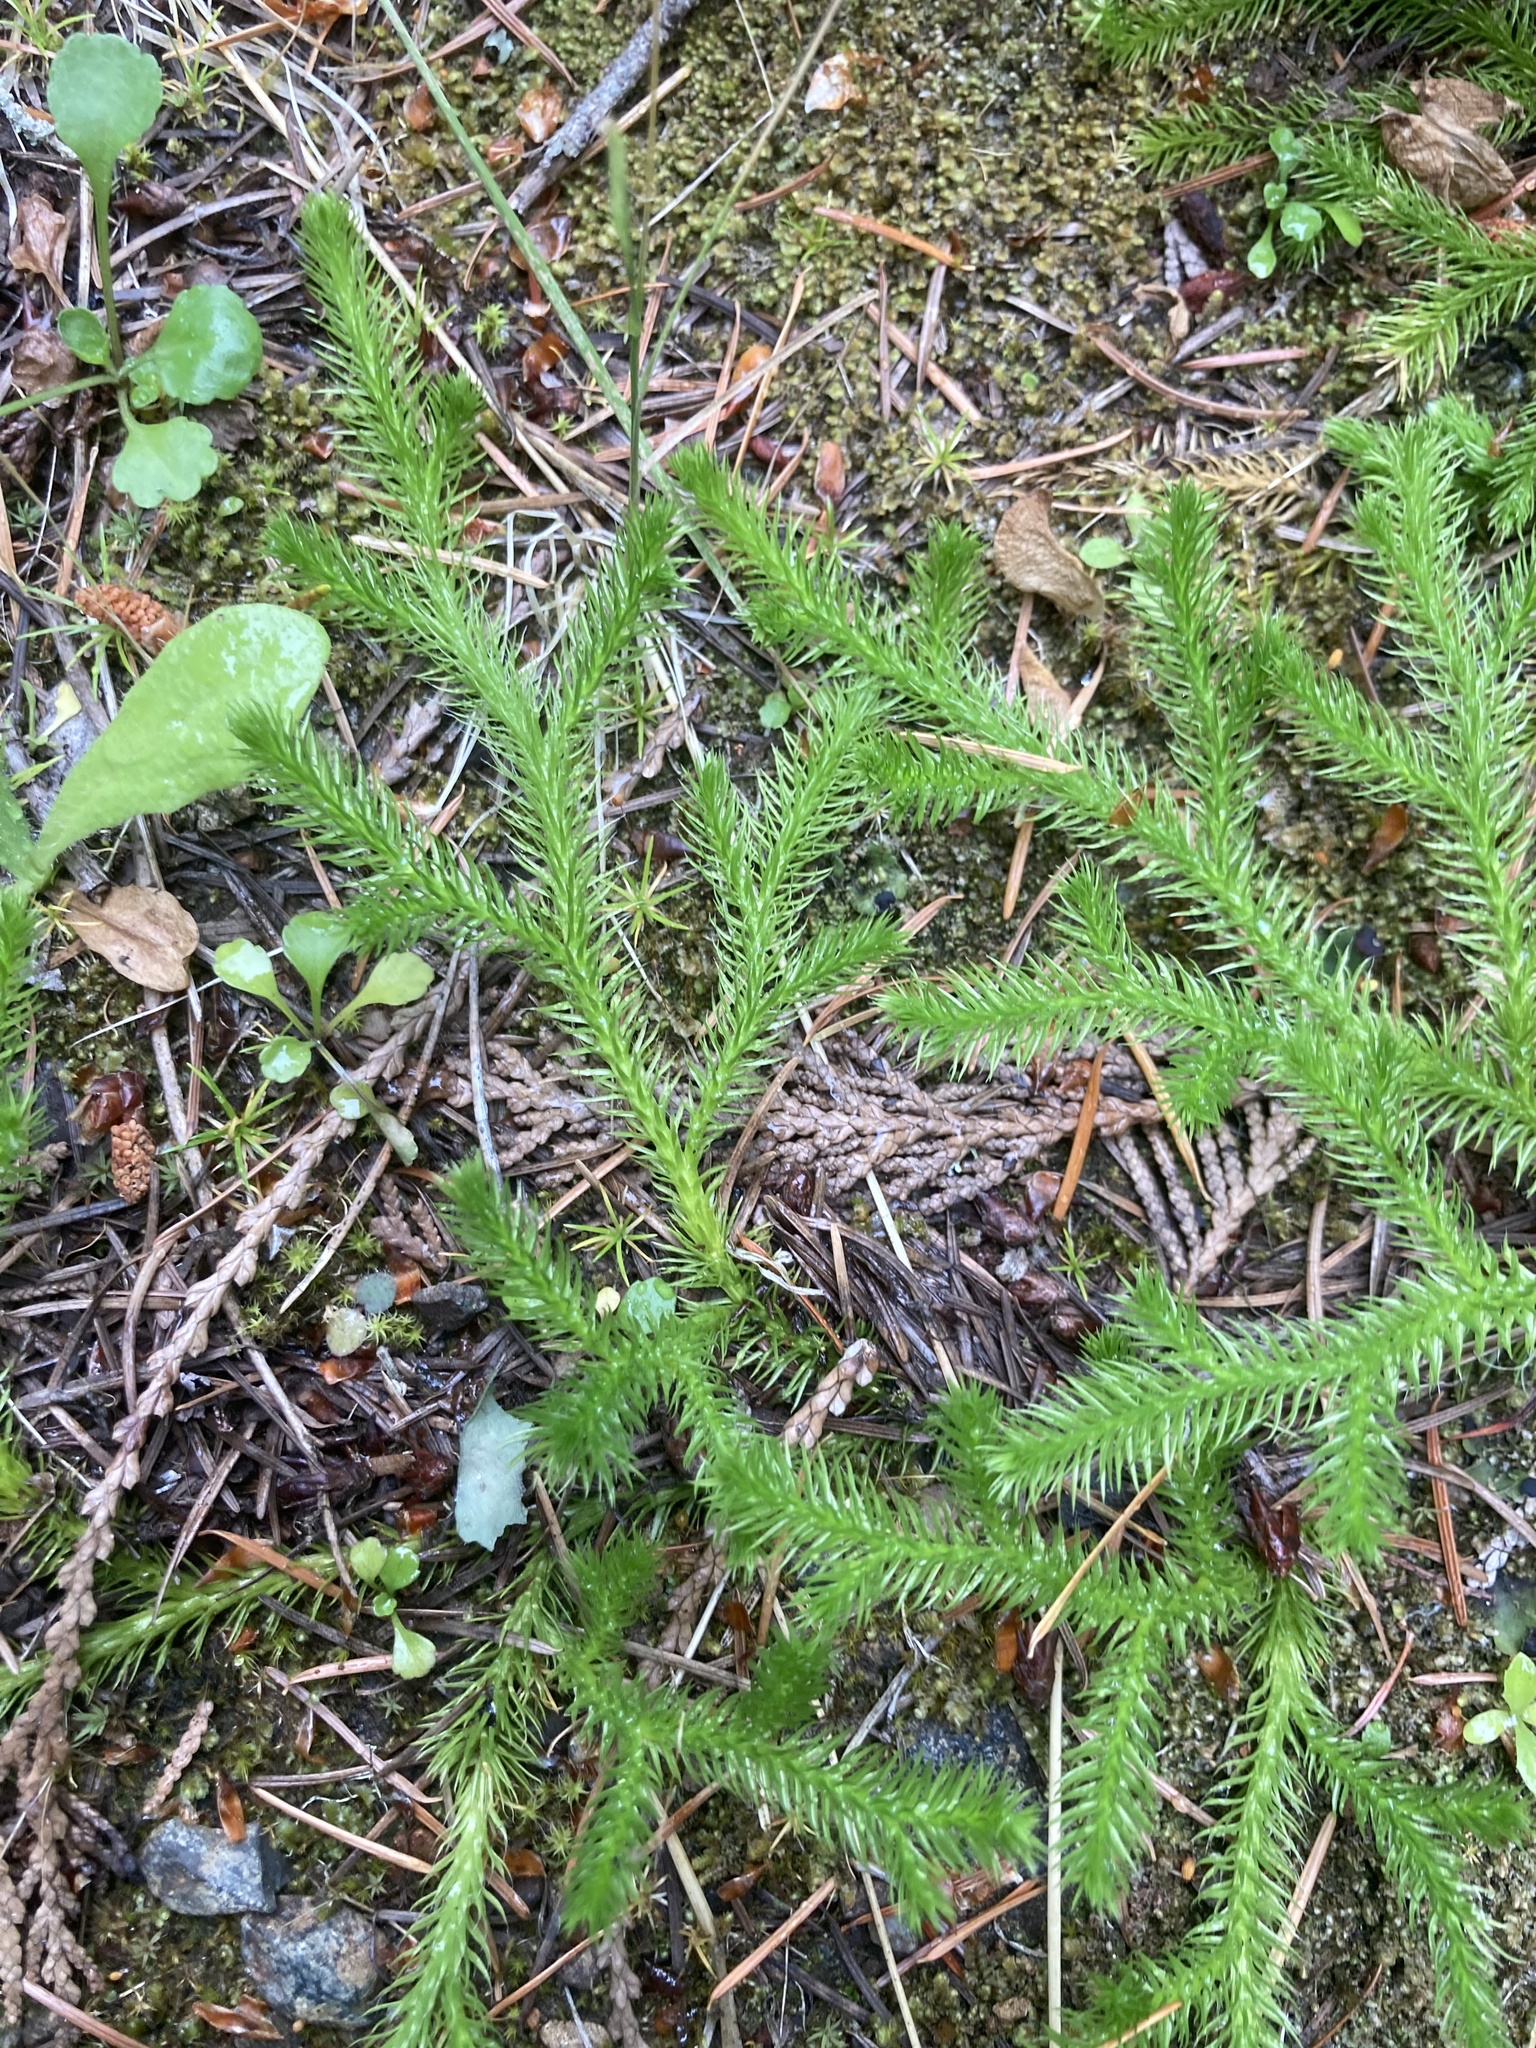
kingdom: Plantae
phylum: Tracheophyta
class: Lycopodiopsida
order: Lycopodiales
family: Lycopodiaceae
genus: Lycopodium
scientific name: Lycopodium clavatum
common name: Stag's-horn clubmoss
